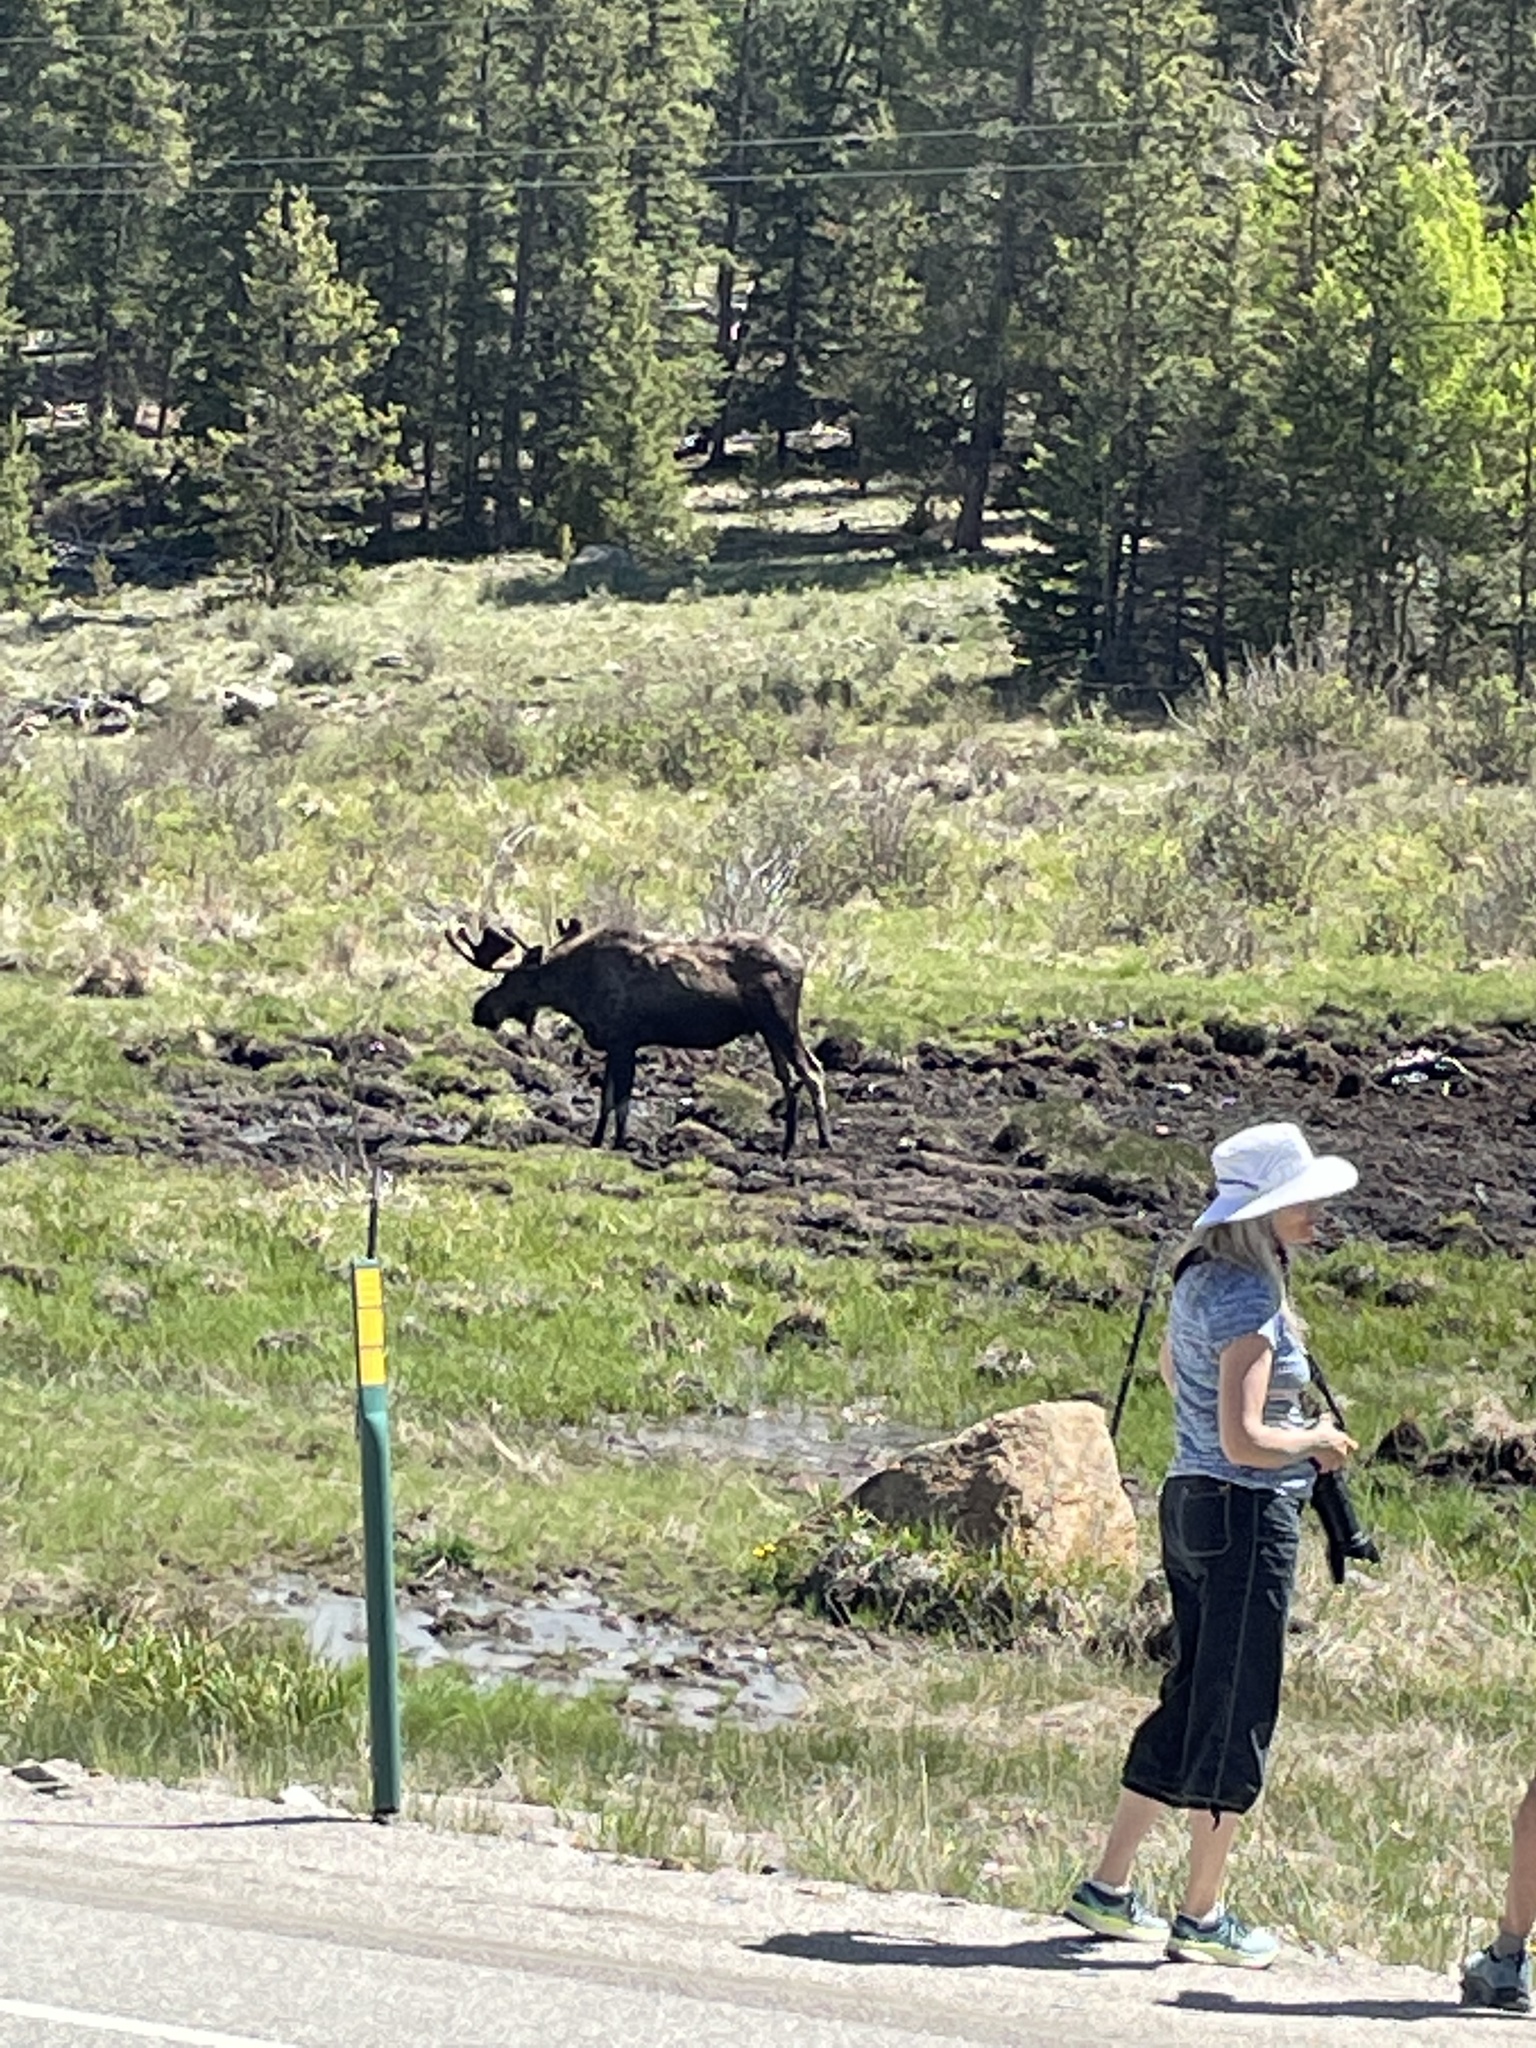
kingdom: Animalia
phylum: Chordata
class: Mammalia
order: Artiodactyla
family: Cervidae
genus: Alces
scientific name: Alces alces
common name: Moose
